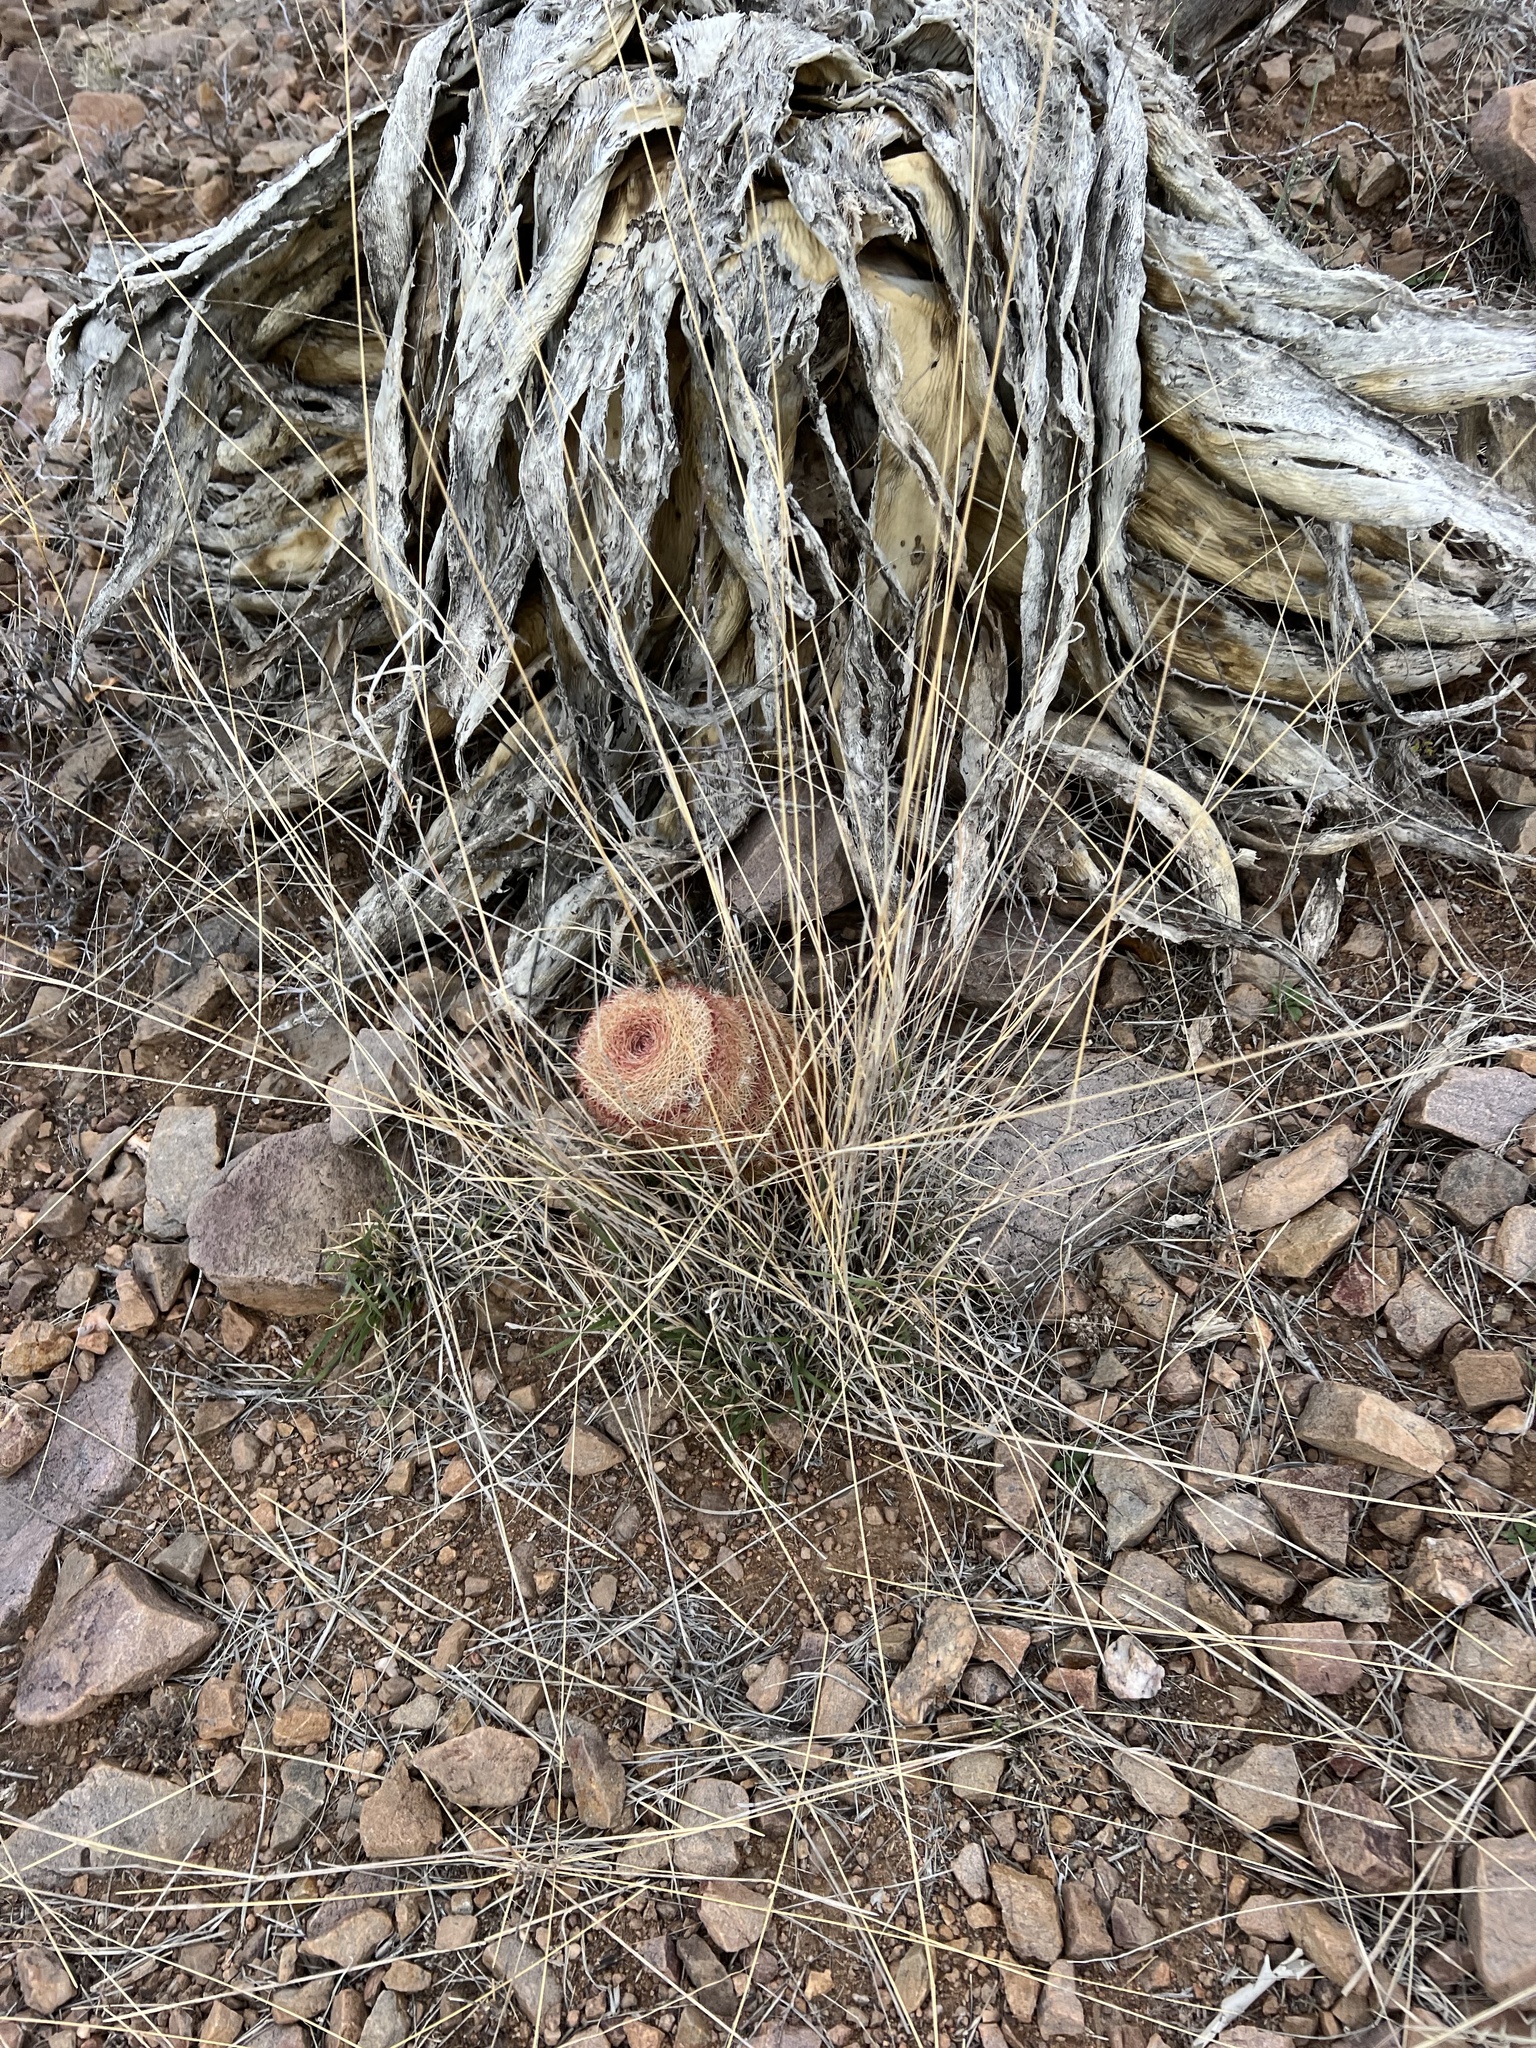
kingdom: Plantae
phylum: Tracheophyta
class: Magnoliopsida
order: Caryophyllales
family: Cactaceae
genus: Echinocereus
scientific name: Echinocereus rigidissimus
